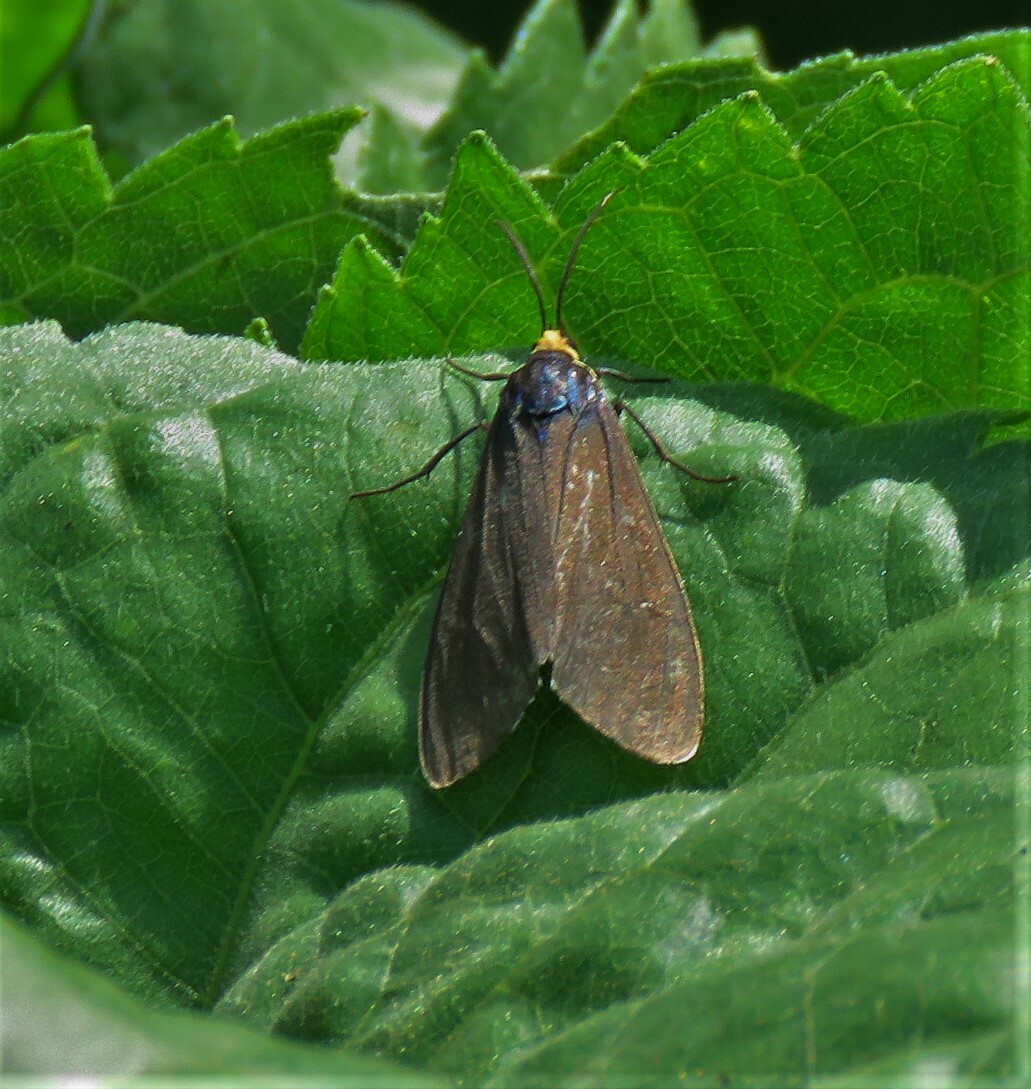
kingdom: Animalia
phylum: Arthropoda
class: Insecta
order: Lepidoptera
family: Erebidae
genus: Ctenucha
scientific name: Ctenucha virginica
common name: Virginia ctenucha moth
